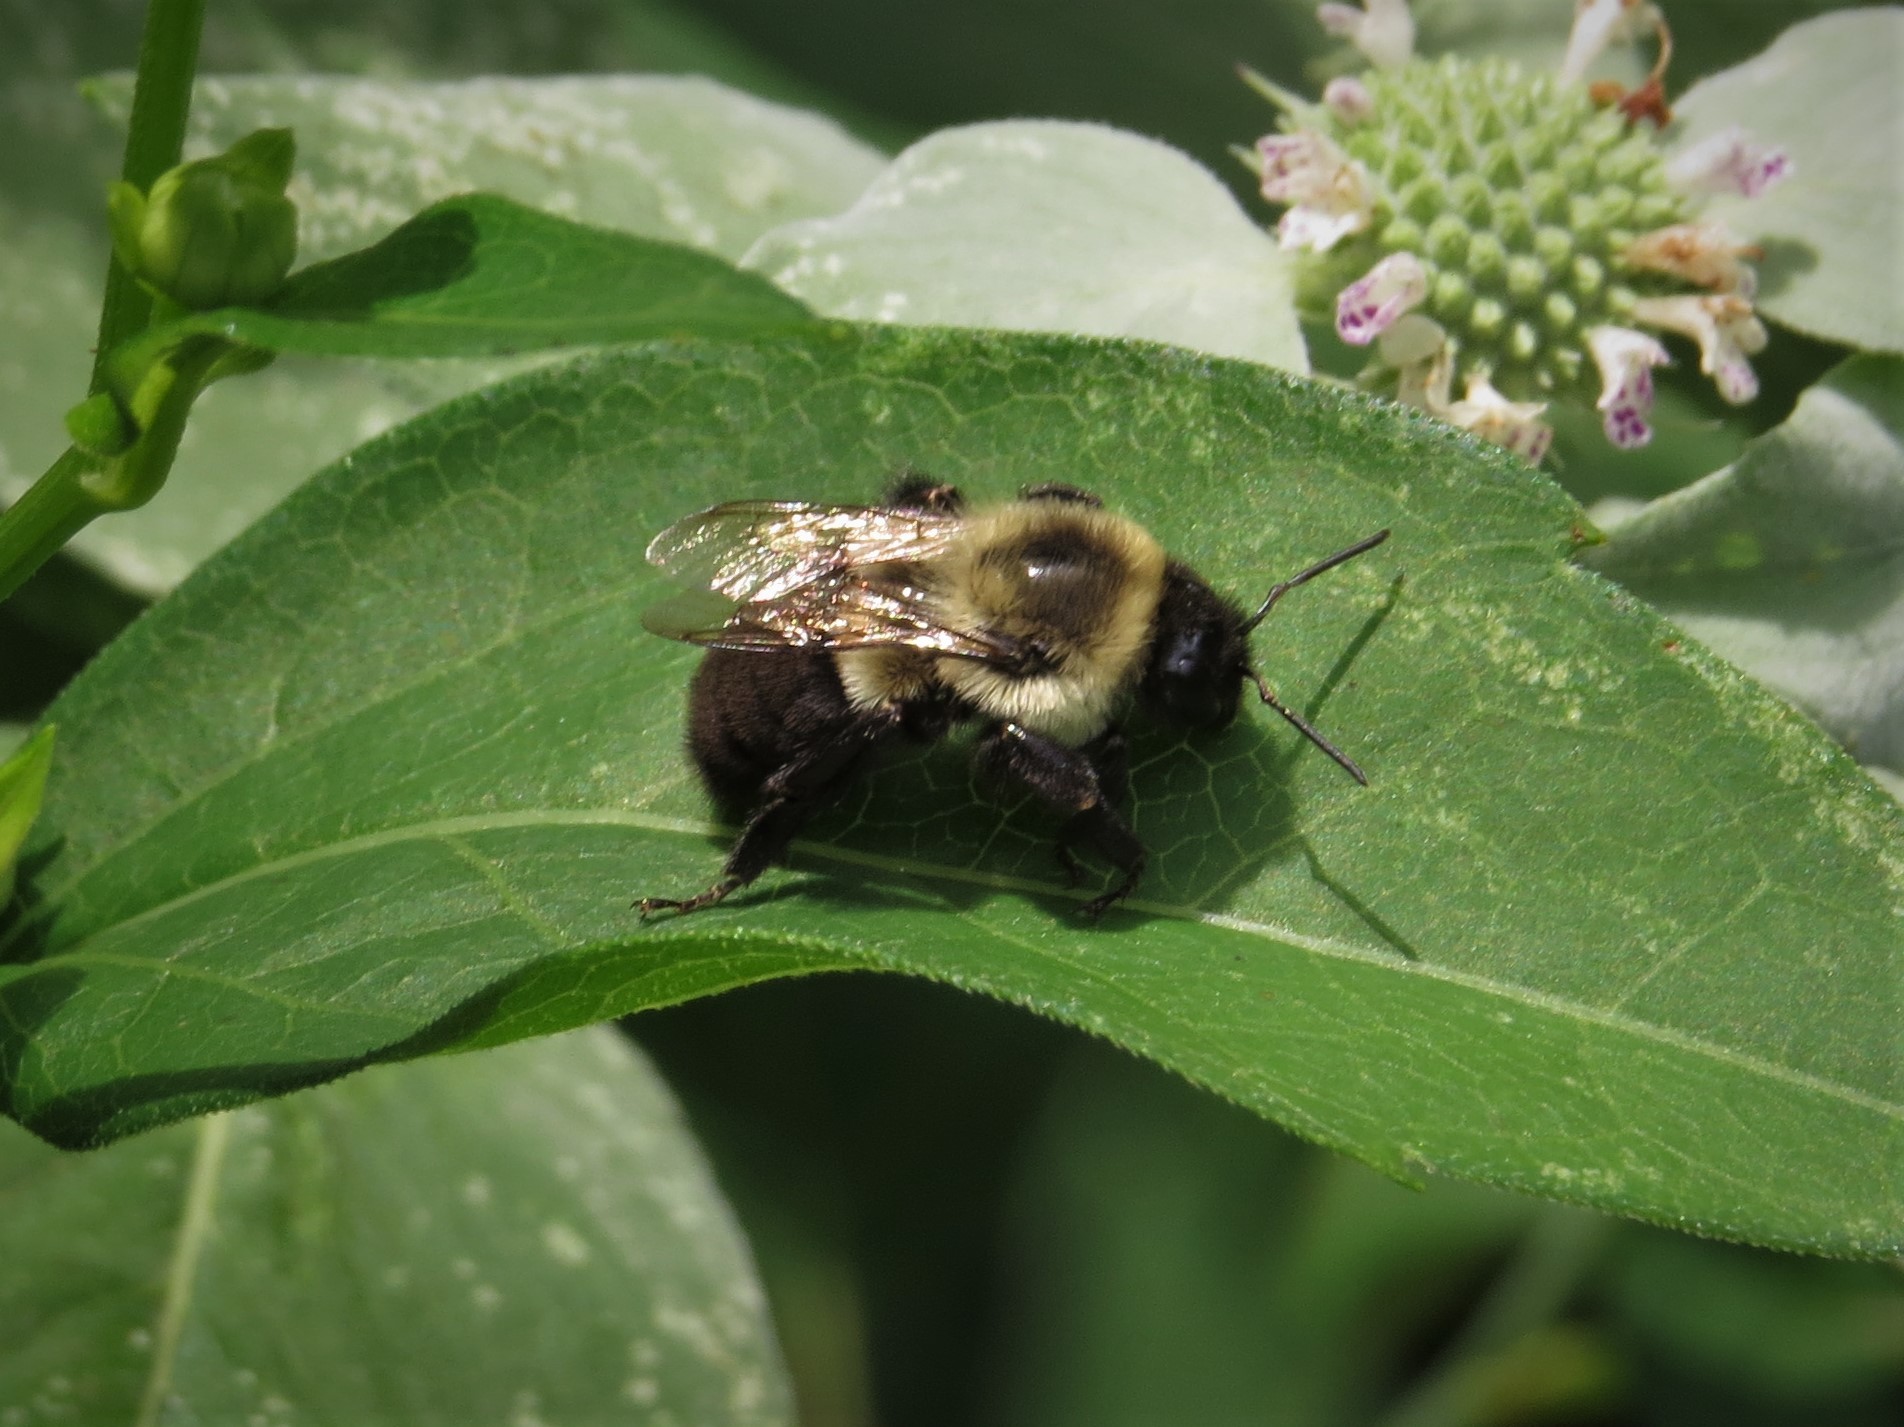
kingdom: Animalia
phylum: Arthropoda
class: Insecta
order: Hymenoptera
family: Apidae
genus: Bombus
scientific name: Bombus impatiens
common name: Common eastern bumble bee
